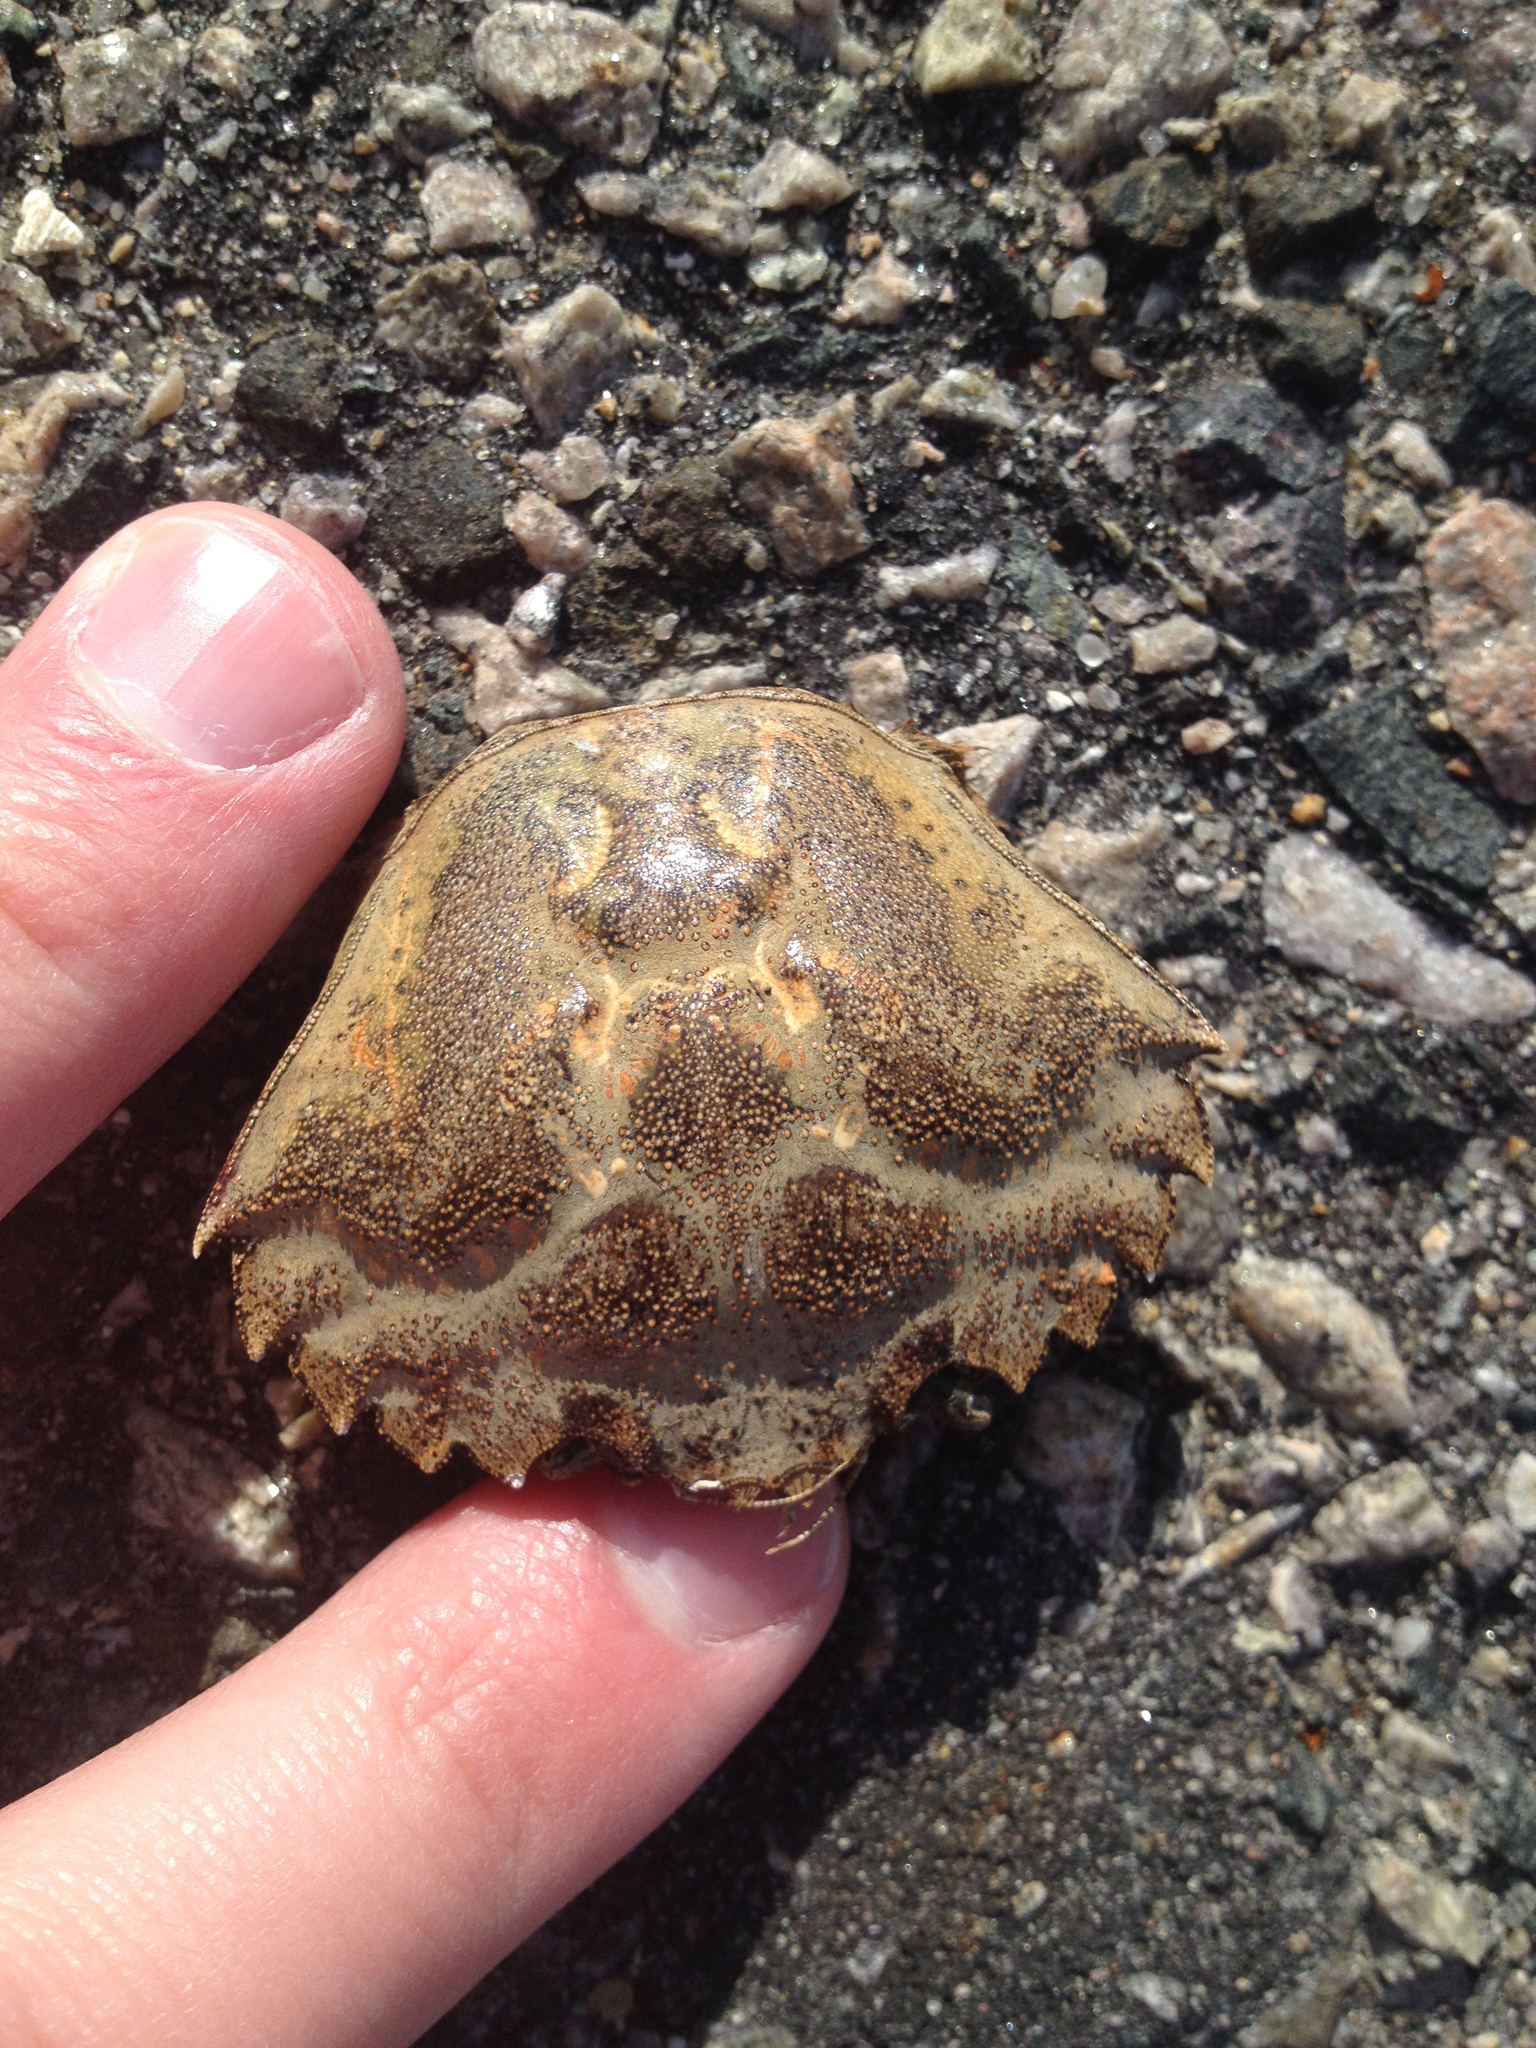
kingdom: Animalia
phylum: Arthropoda
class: Malacostraca
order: Decapoda
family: Carcinidae
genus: Carcinus
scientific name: Carcinus maenas
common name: European green crab
